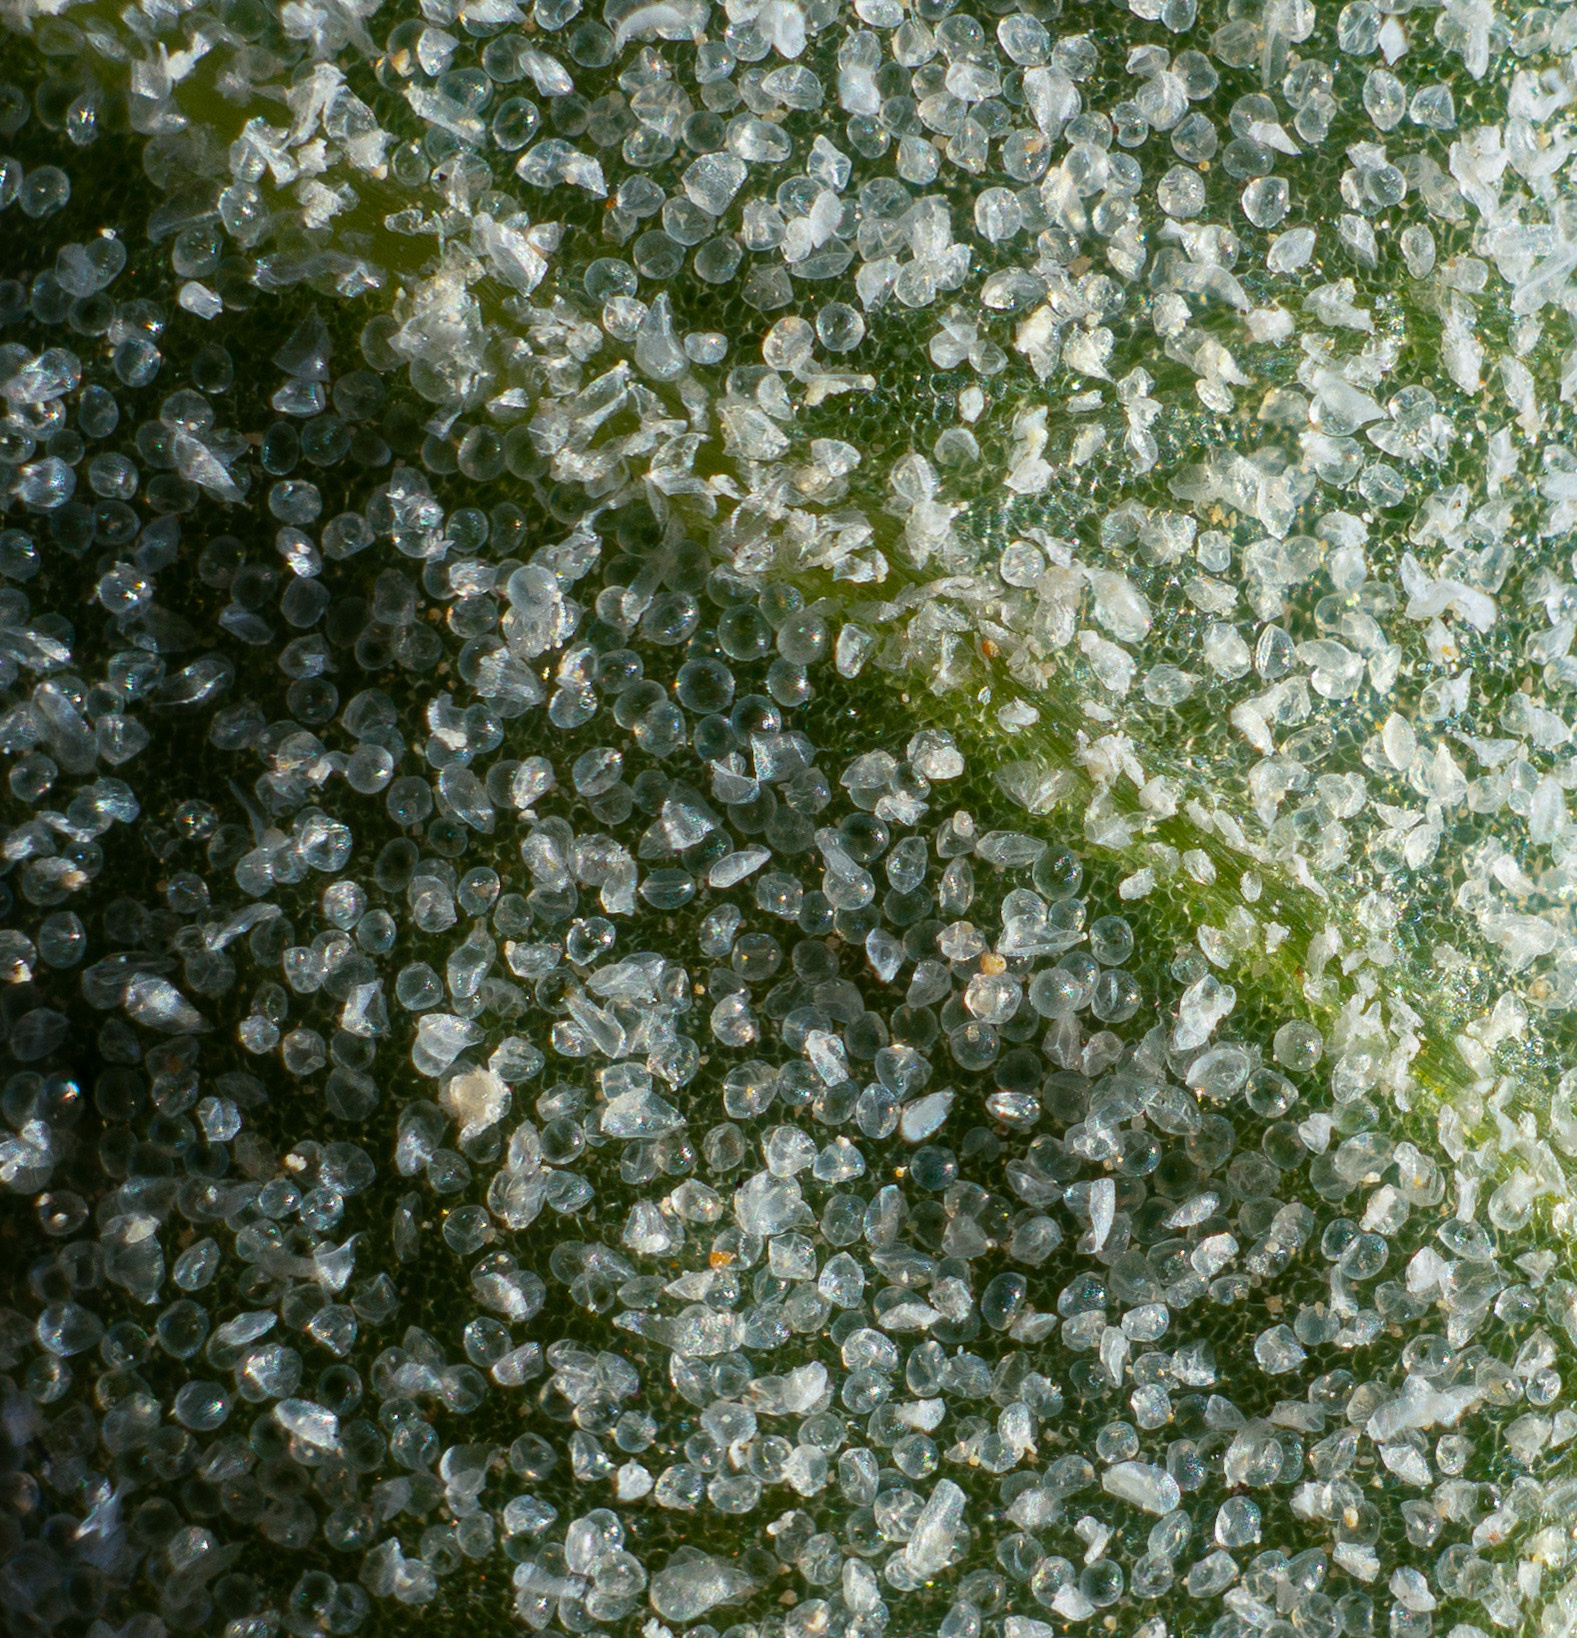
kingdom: Plantae
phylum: Tracheophyta
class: Magnoliopsida
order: Caryophyllales
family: Amaranthaceae
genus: Atriplex
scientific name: Atriplex argentea
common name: Silverscale
